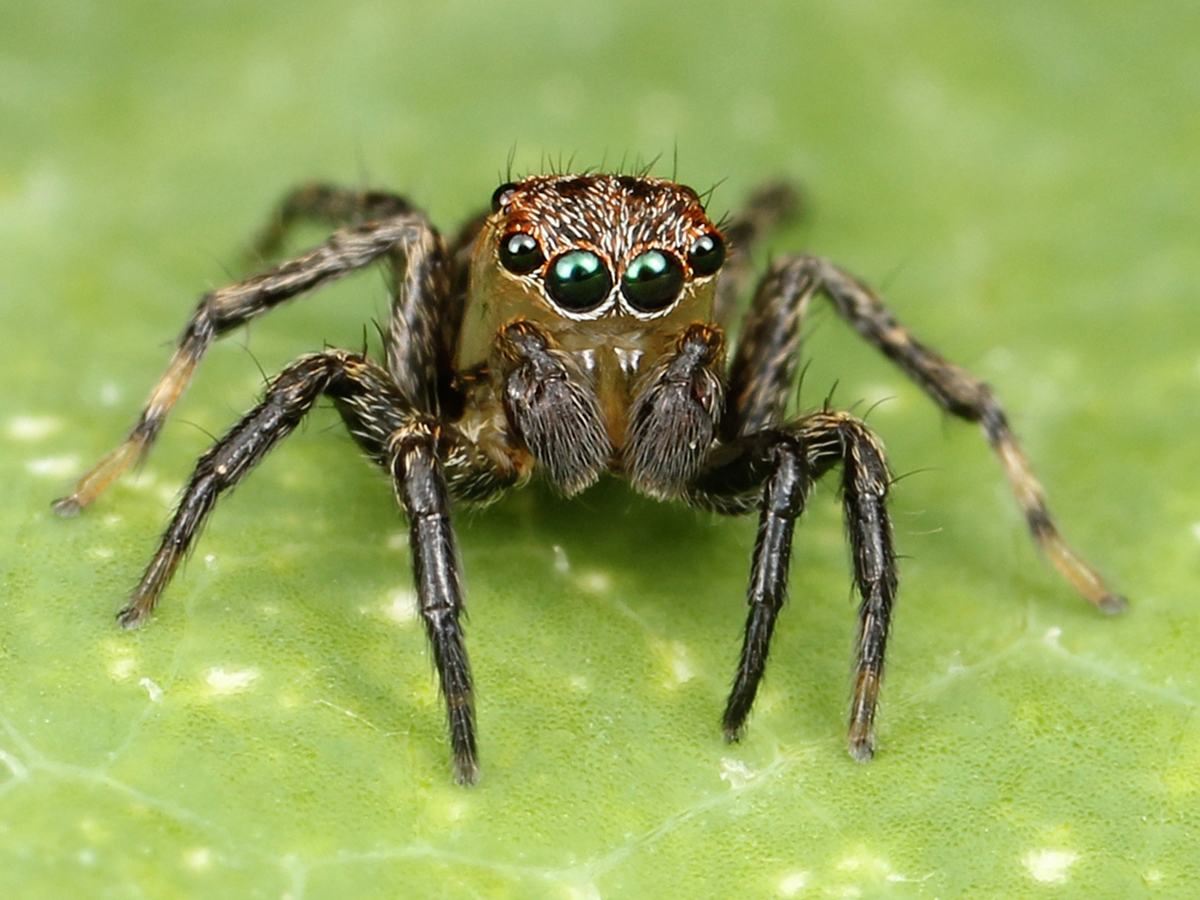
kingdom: Animalia
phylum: Arthropoda
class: Arachnida
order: Araneae
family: Salticidae
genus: Naphrys
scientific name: Naphrys pulex
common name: Flea jumping spider
